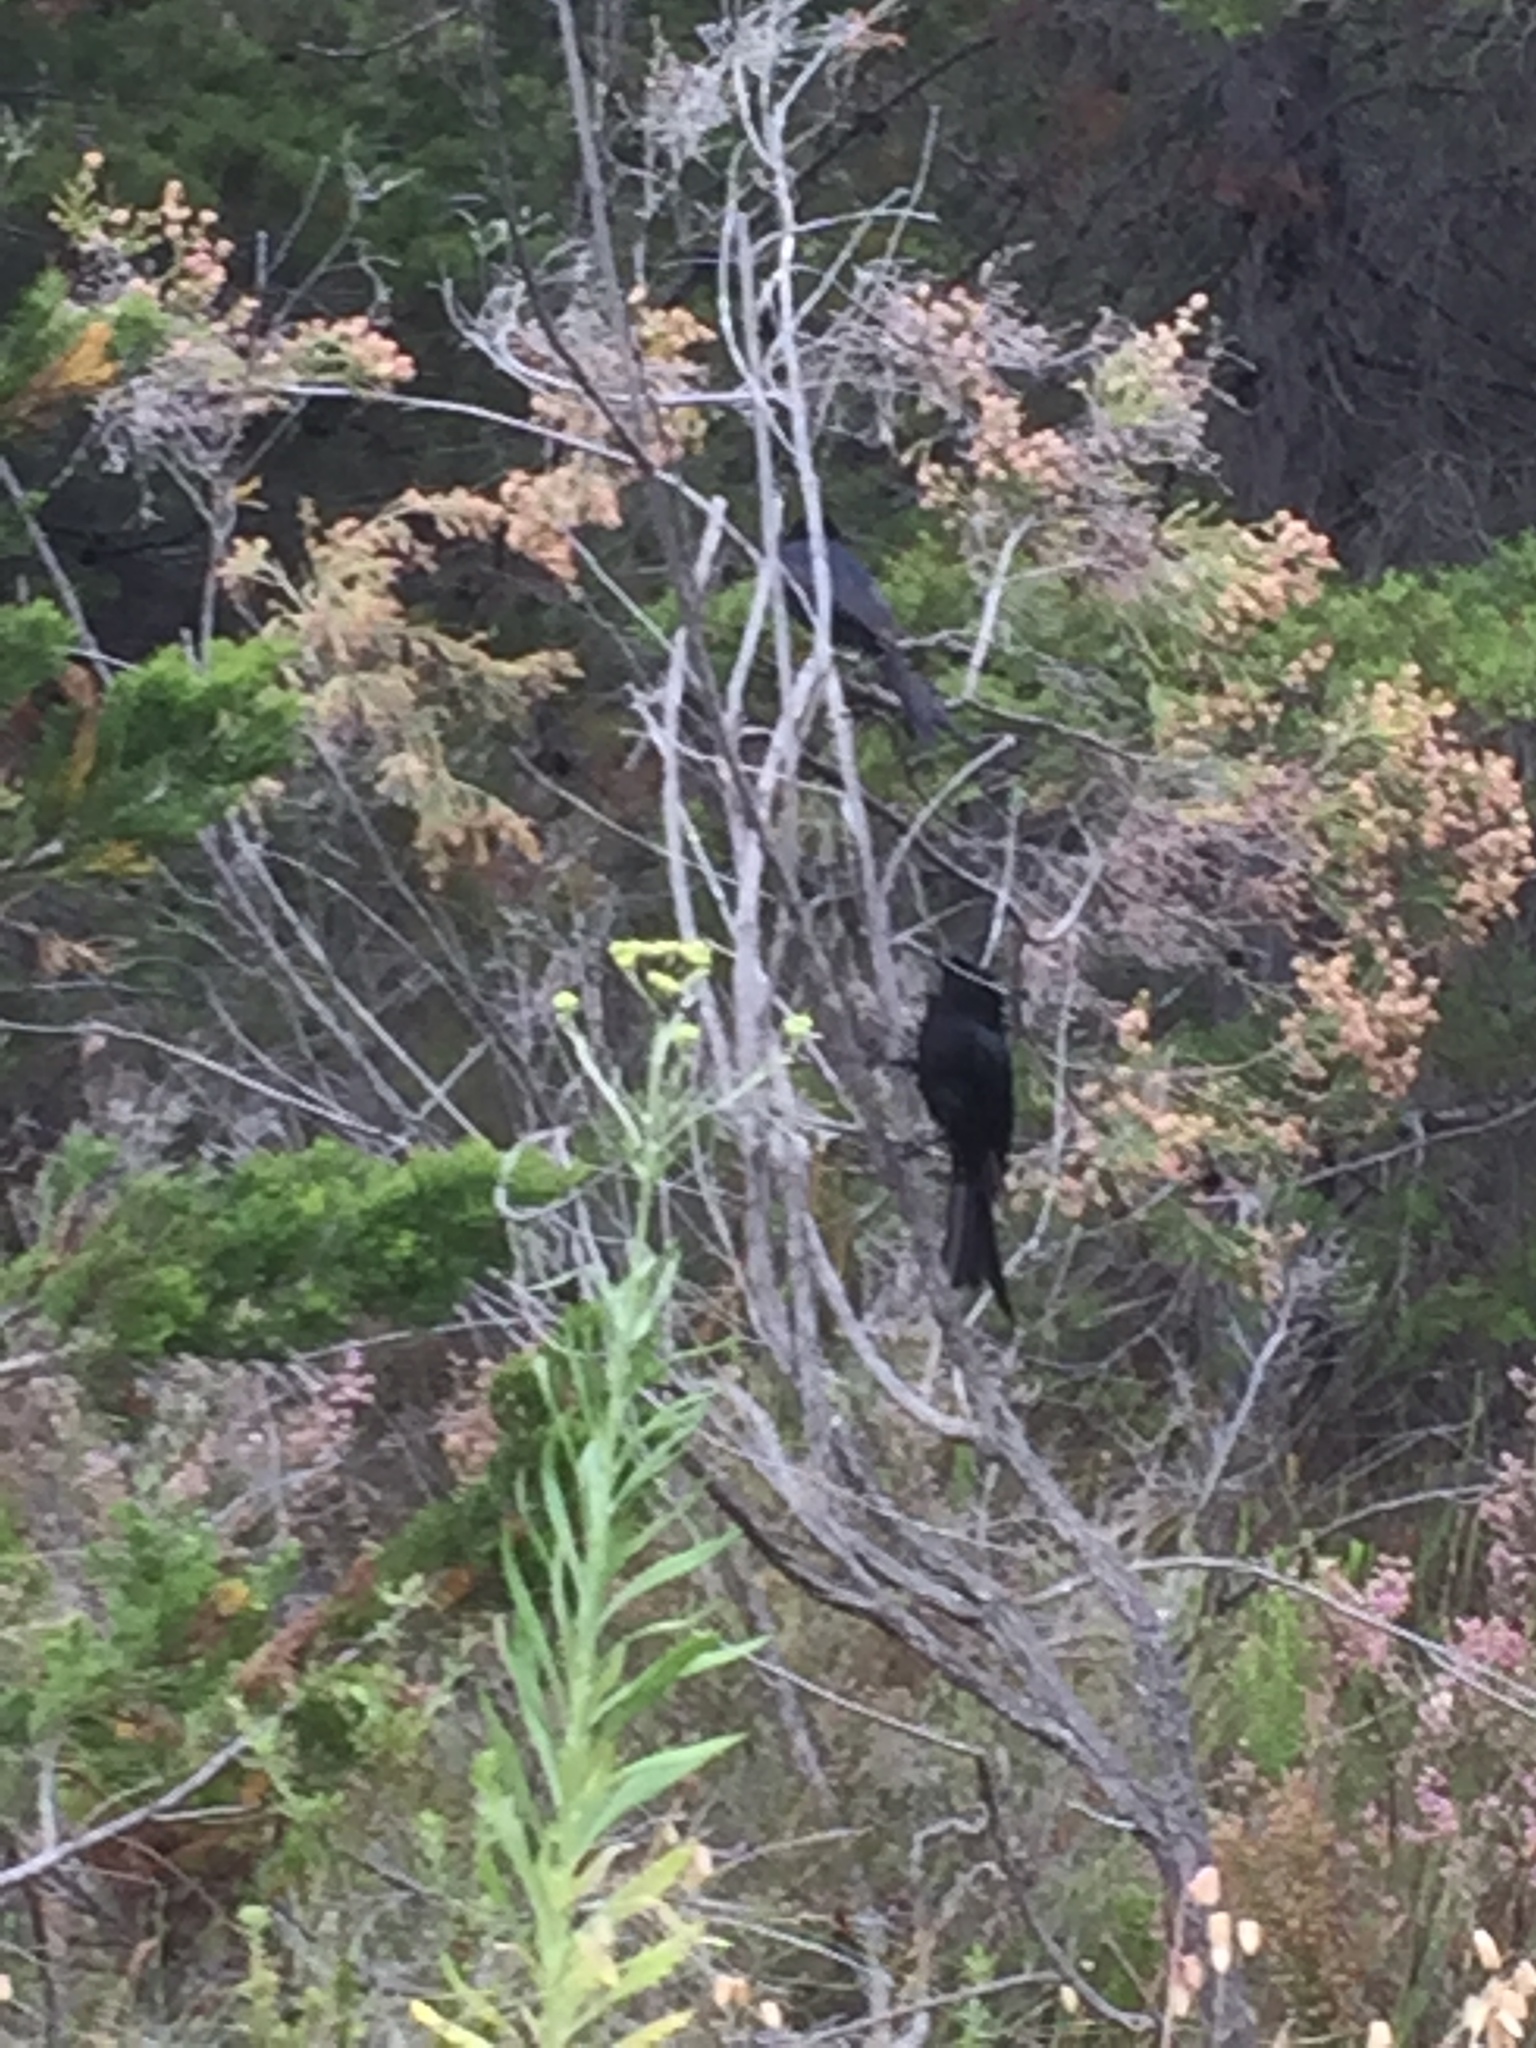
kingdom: Animalia
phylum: Chordata
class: Aves
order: Passeriformes
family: Dicruridae
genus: Dicrurus
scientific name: Dicrurus adsimilis
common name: Fork-tailed drongo
